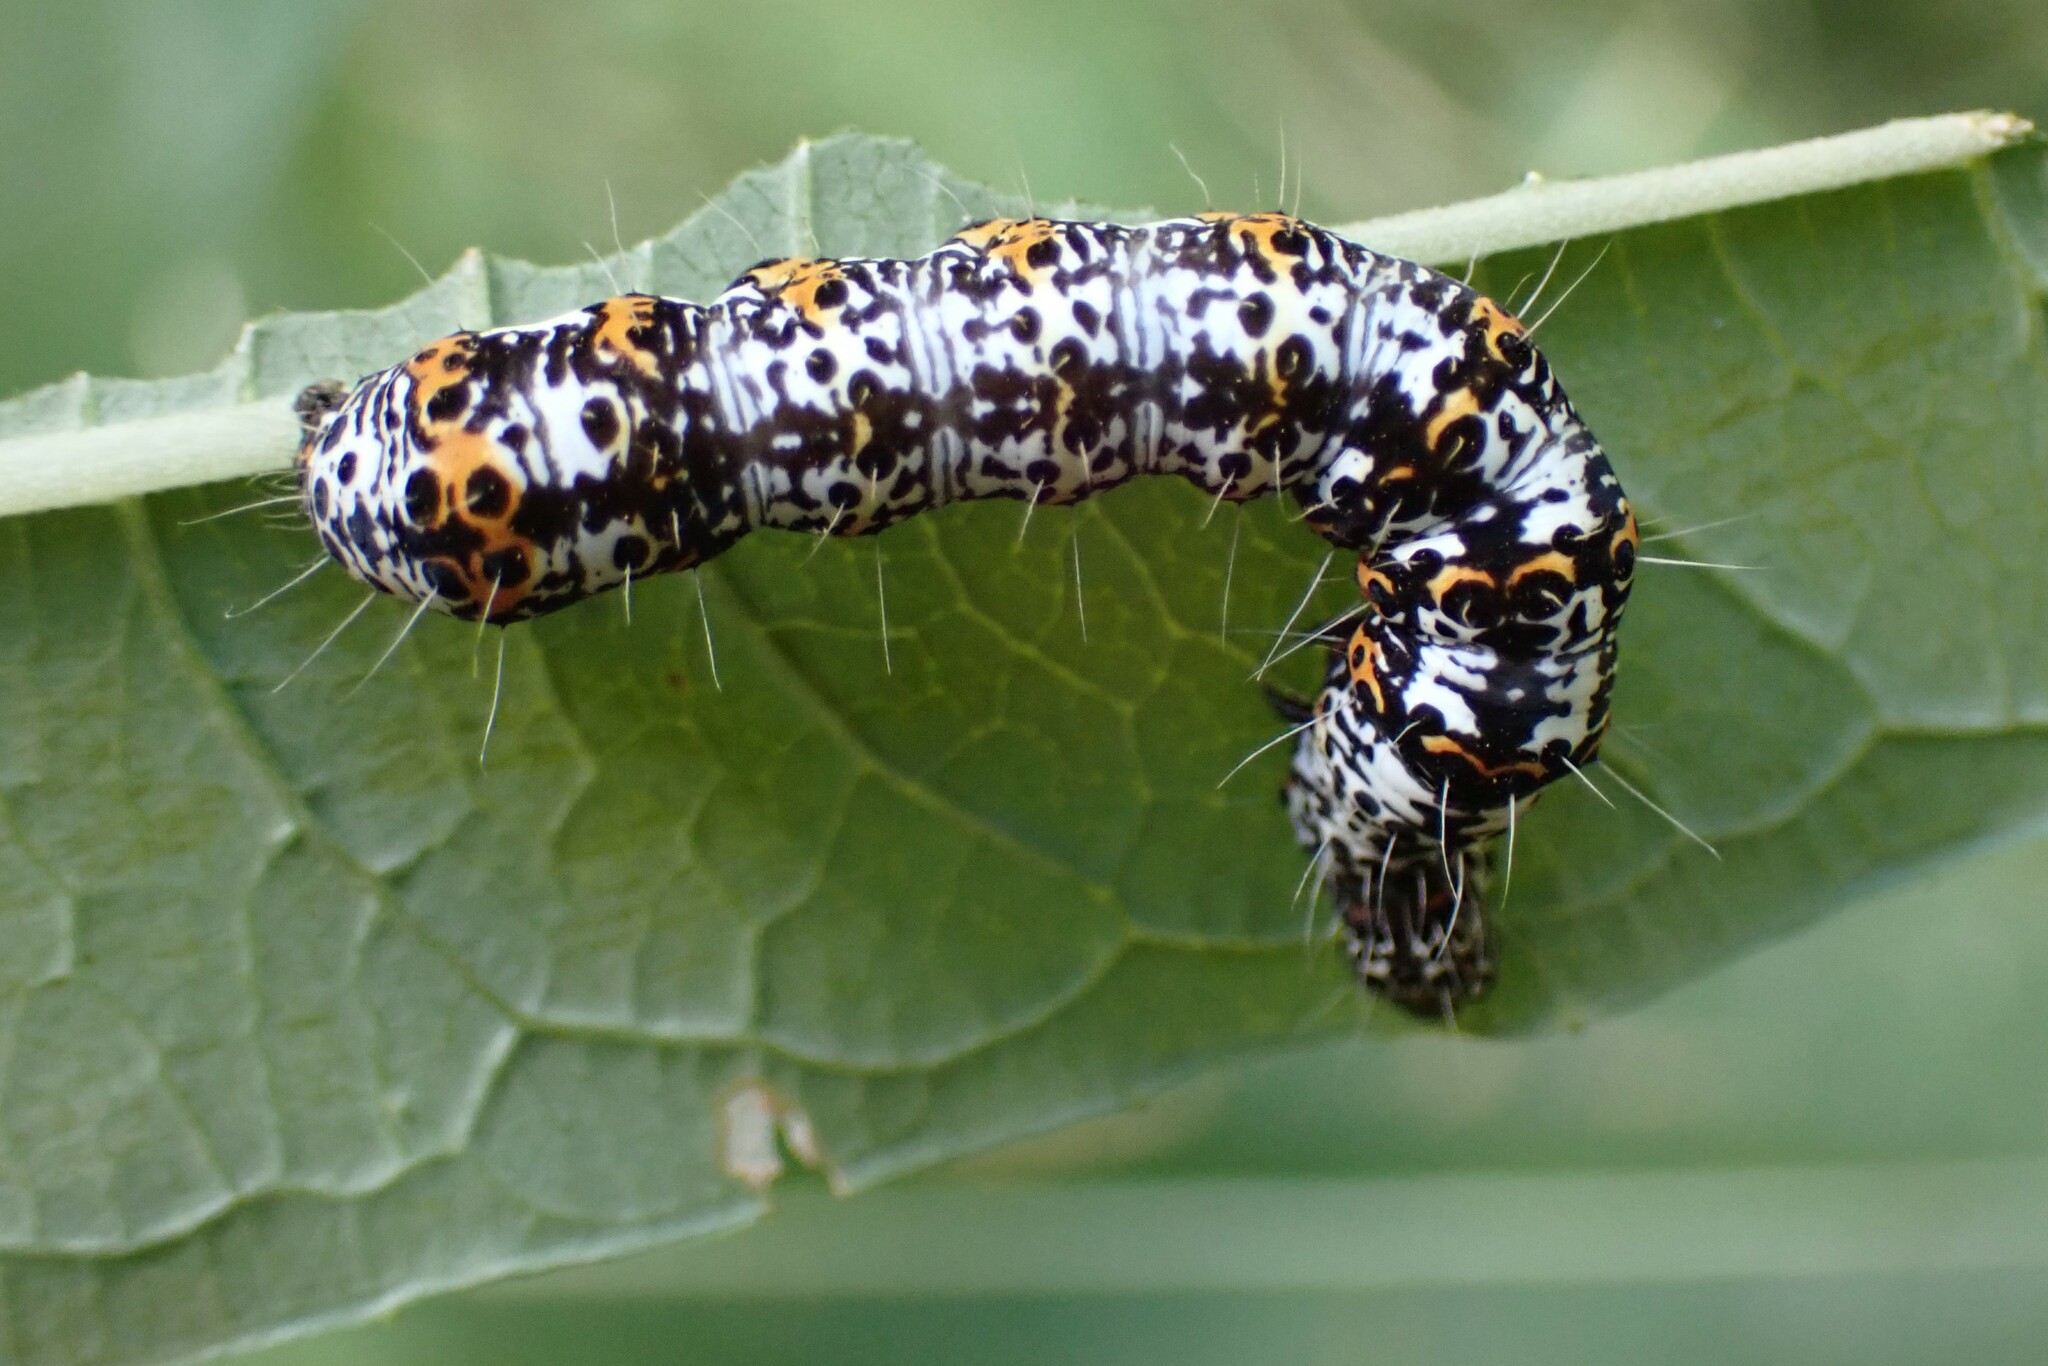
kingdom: Animalia
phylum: Arthropoda
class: Insecta
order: Lepidoptera
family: Noctuidae
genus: Alypia
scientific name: Alypia langtonii
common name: Fireweed caterpillar
